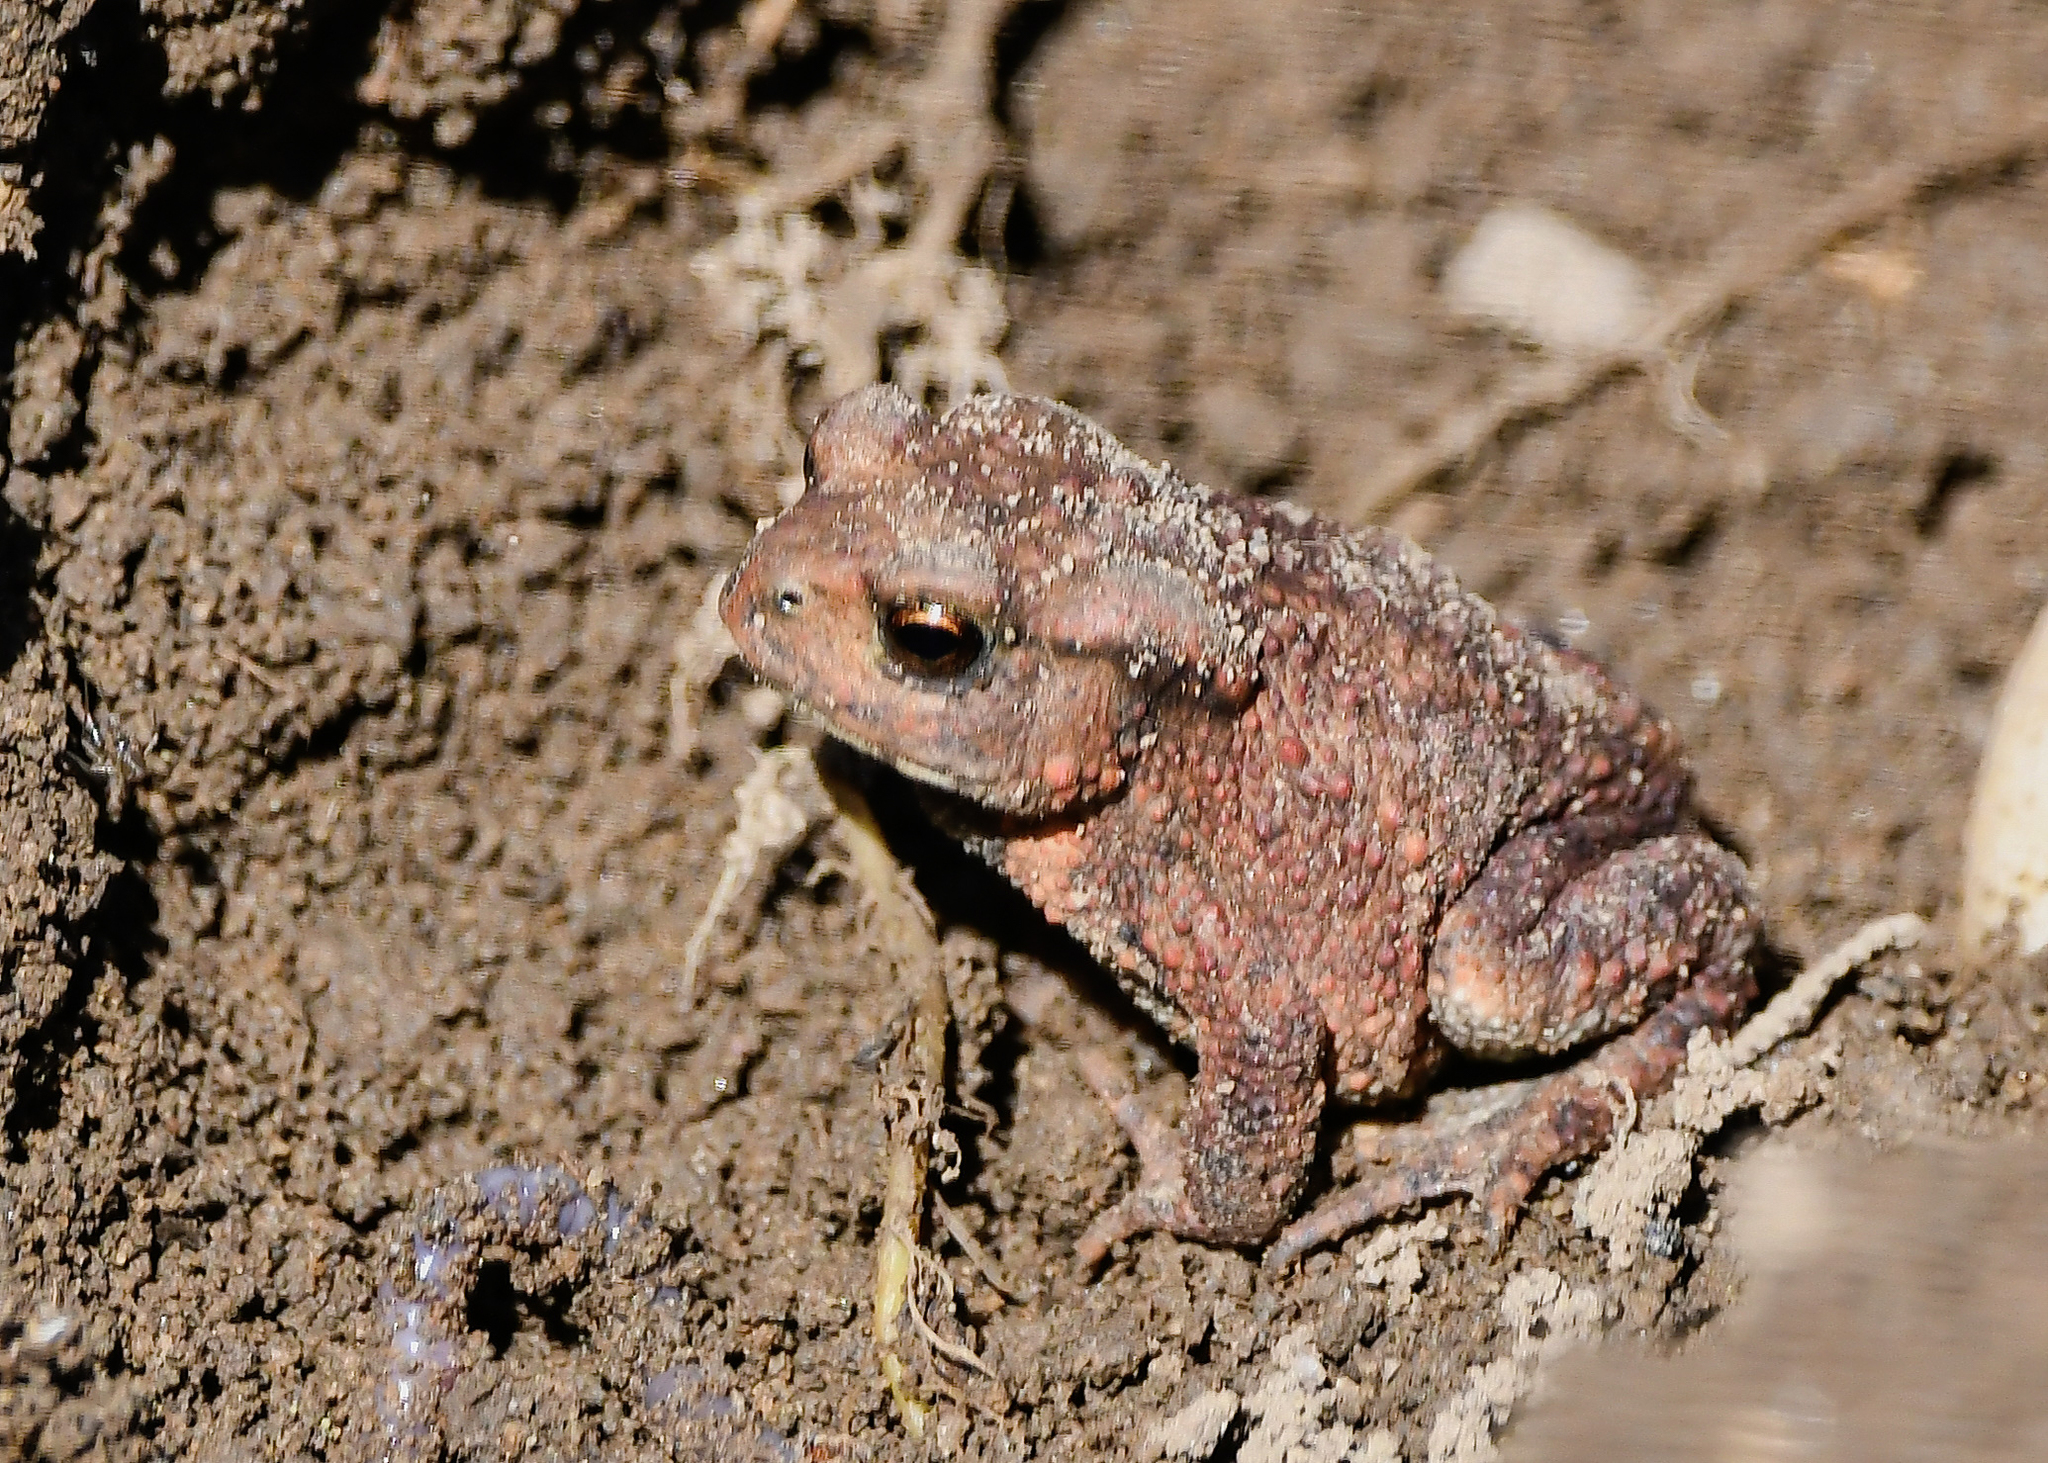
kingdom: Animalia
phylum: Chordata
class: Amphibia
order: Anura
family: Bufonidae
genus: Bufo
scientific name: Bufo bufo
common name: Common toad
